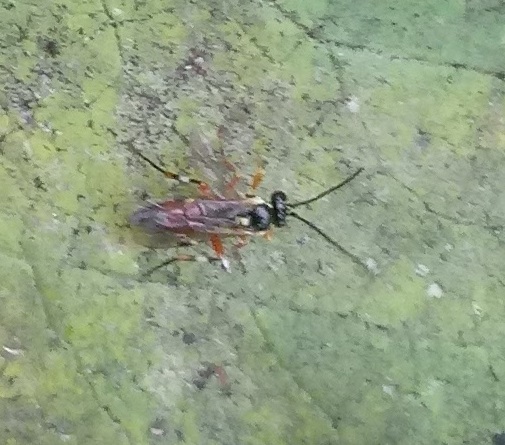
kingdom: Animalia
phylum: Arthropoda
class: Insecta
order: Hymenoptera
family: Ichneumonidae
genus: Diplazon
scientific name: Diplazon laetatorius
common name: Parasitoid wasp
